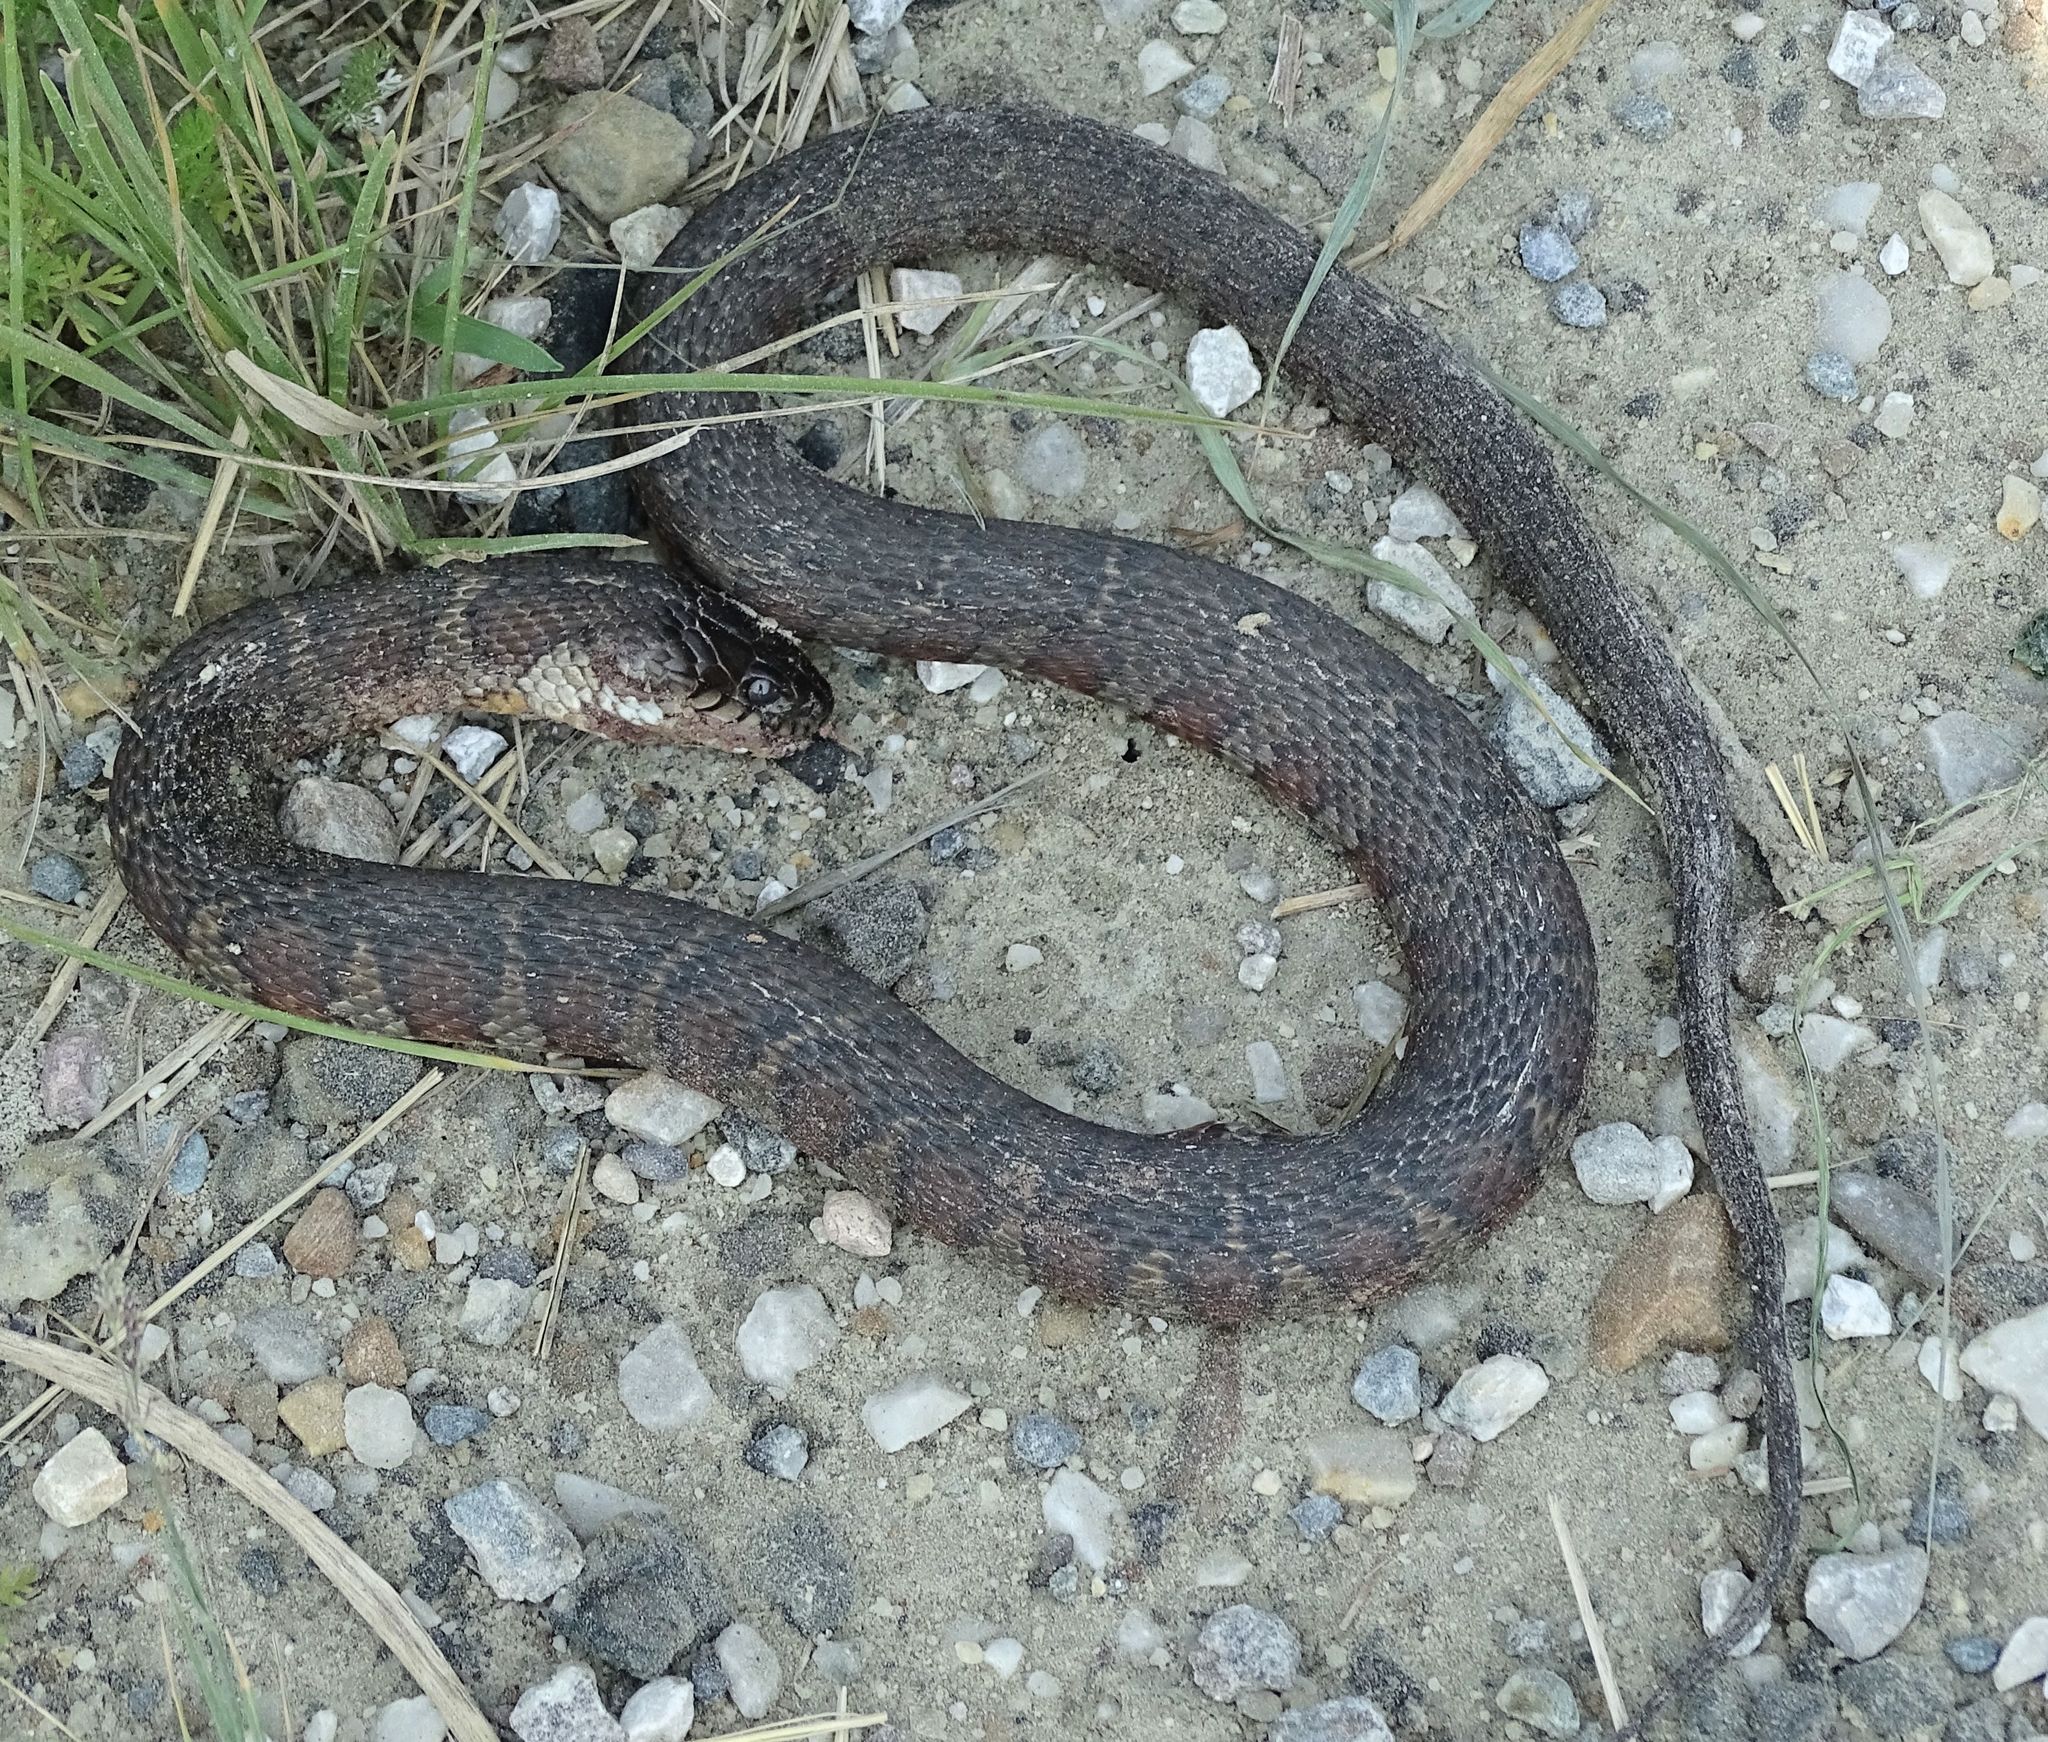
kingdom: Animalia
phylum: Chordata
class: Squamata
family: Colubridae
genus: Nerodia
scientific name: Nerodia sipedon
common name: Northern water snake
